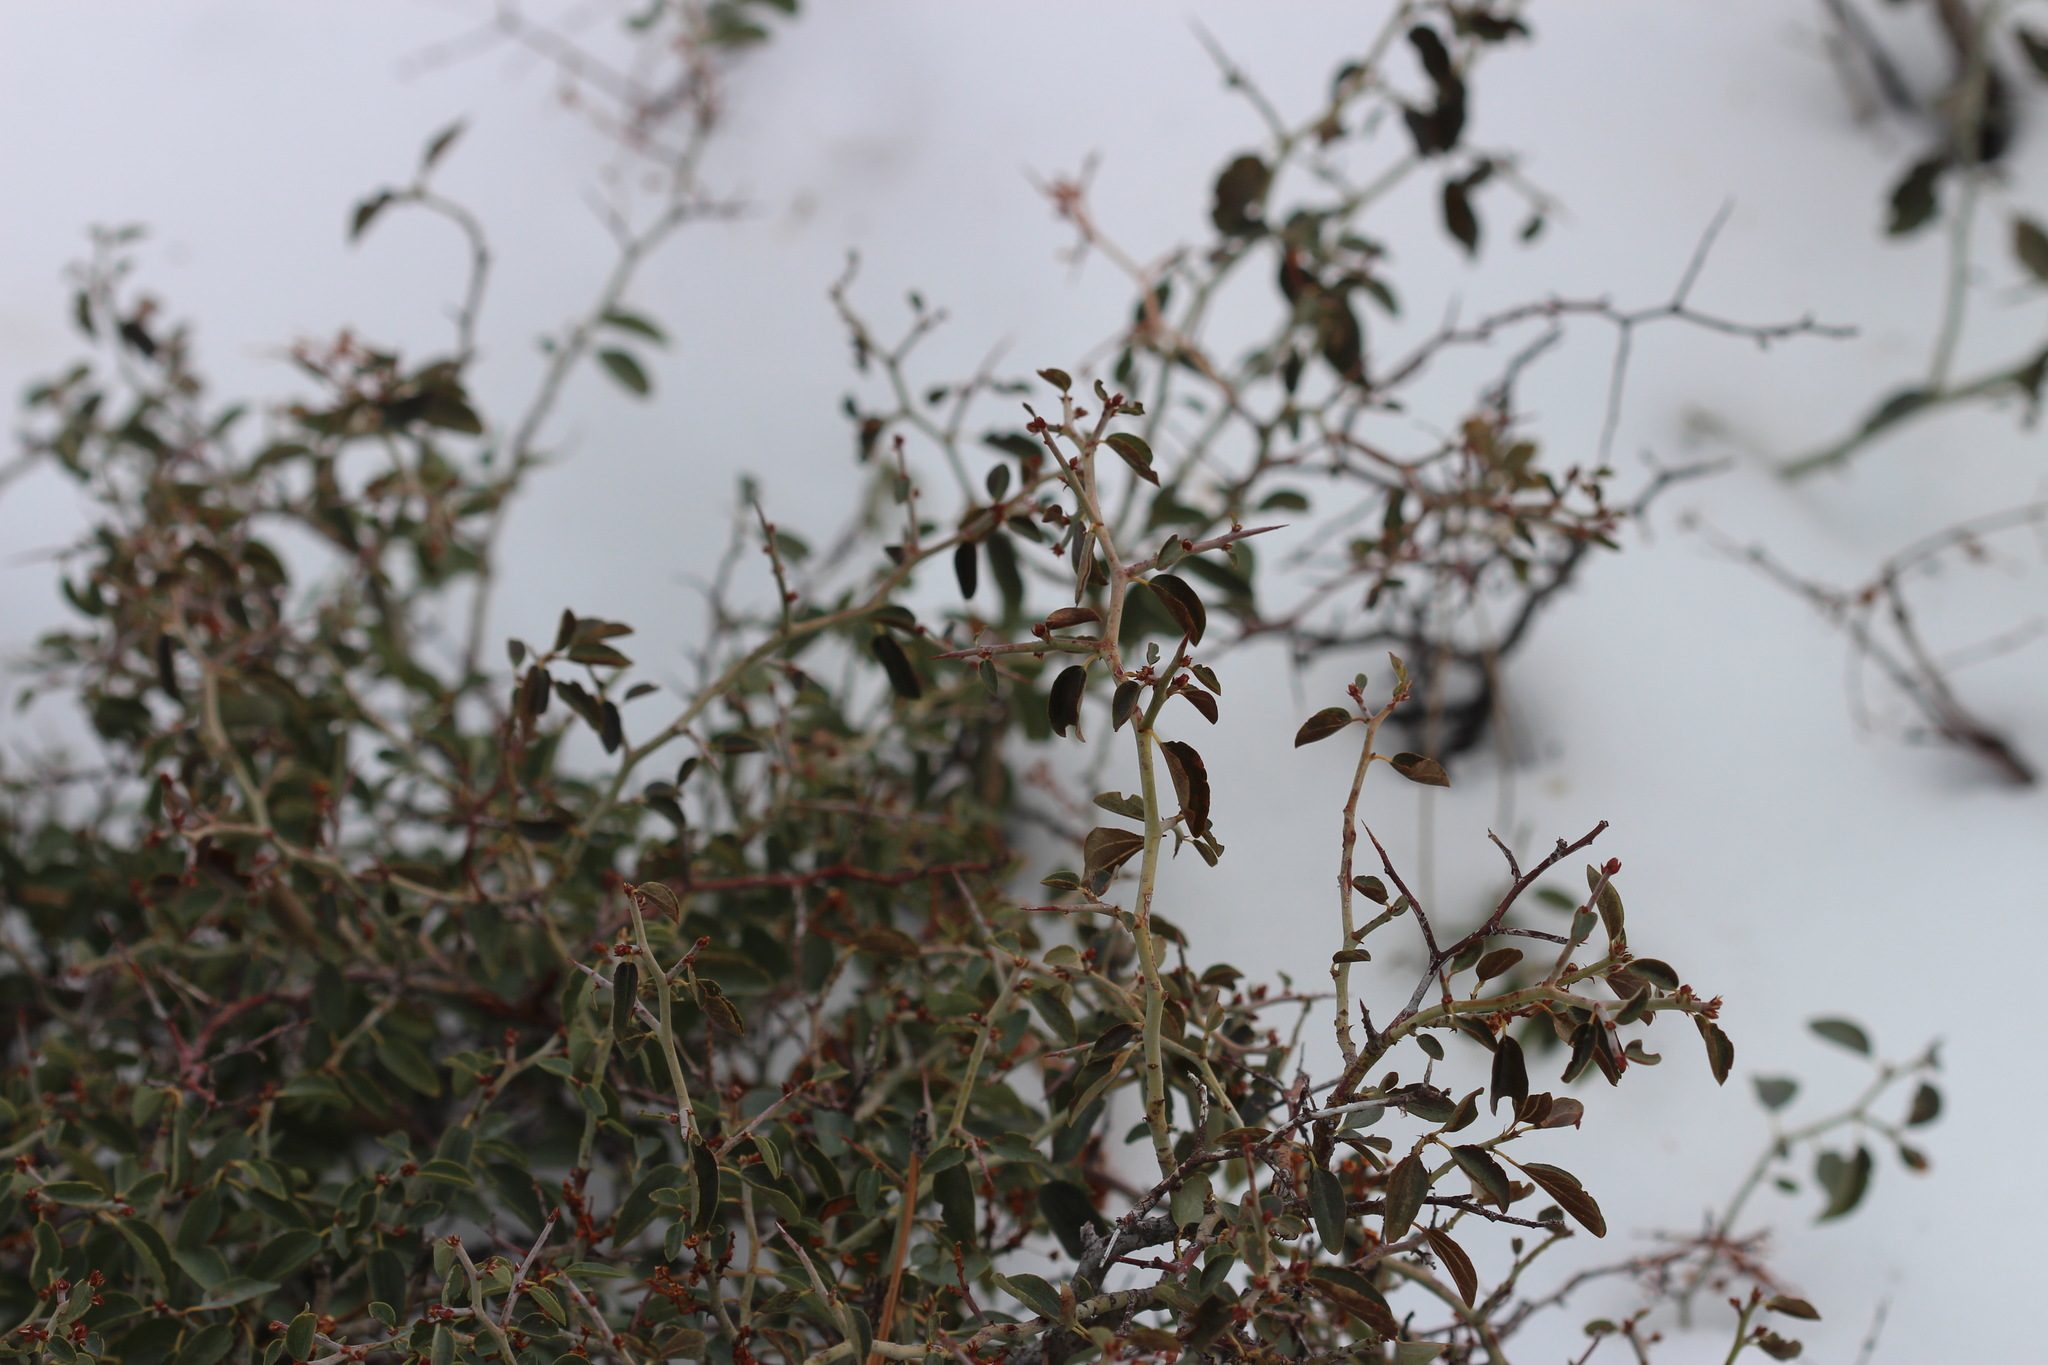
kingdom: Plantae
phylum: Tracheophyta
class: Magnoliopsida
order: Rosales
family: Rhamnaceae
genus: Ceanothus
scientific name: Ceanothus cordulatus
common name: Mountain whitethorn
